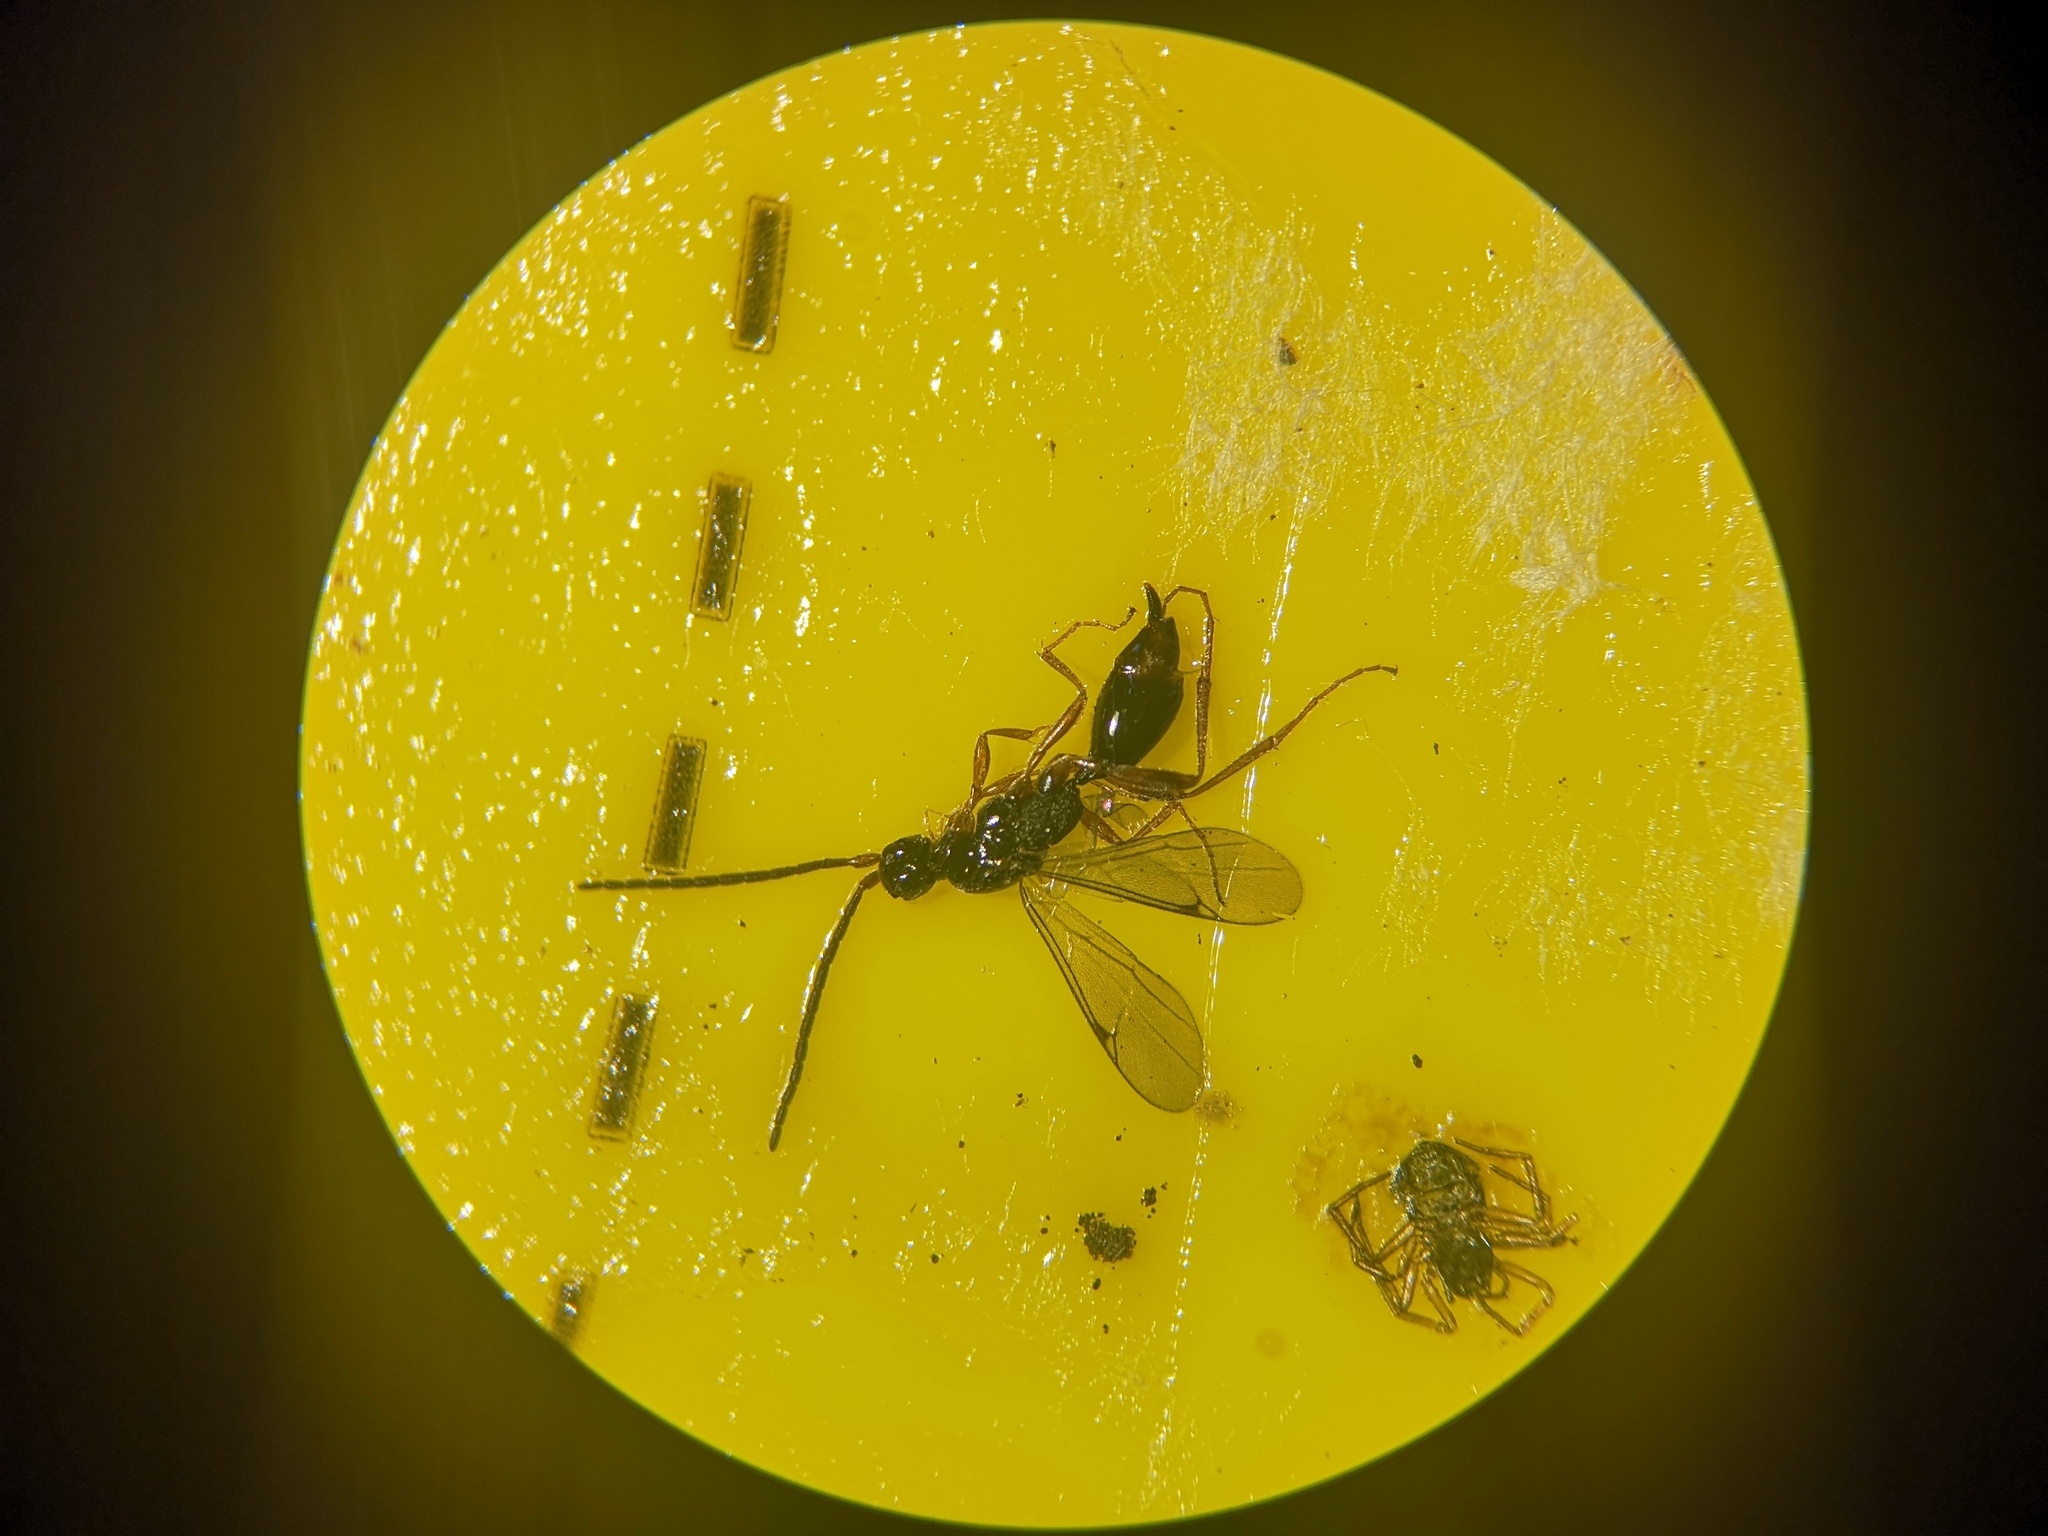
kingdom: Animalia
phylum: Arthropoda
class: Insecta
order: Hymenoptera
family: Proctotrupidae
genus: Phaneroserphus
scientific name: Phaneroserphus calcar
